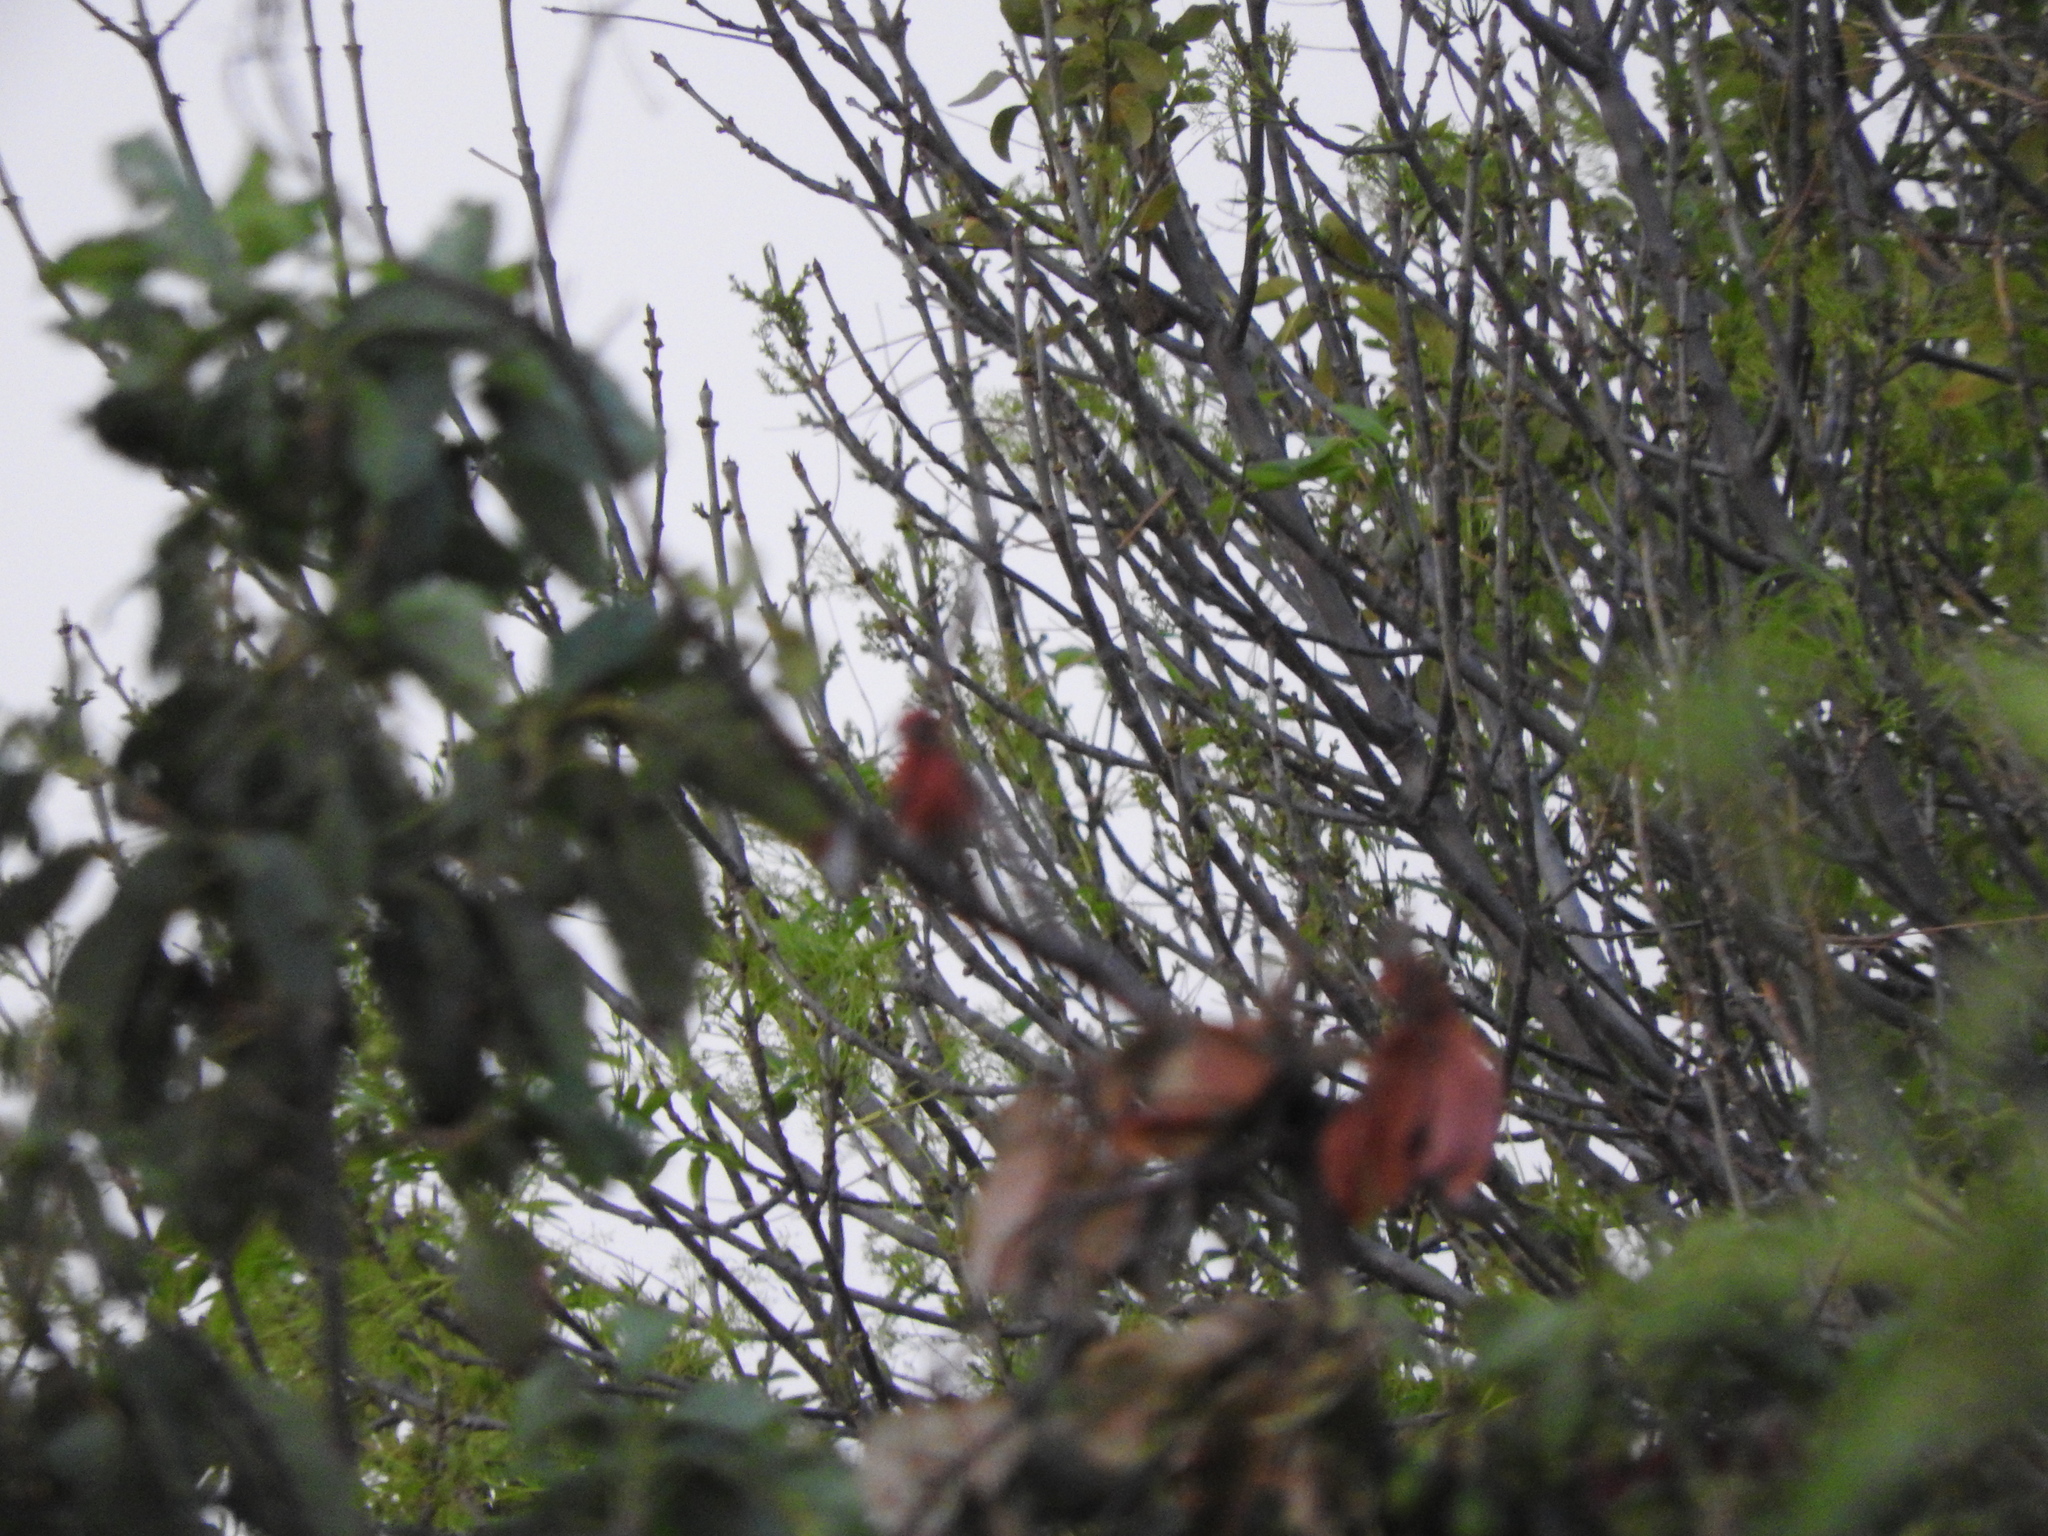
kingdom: Animalia
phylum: Chordata
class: Aves
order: Passeriformes
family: Fringillidae
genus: Haemorhous
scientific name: Haemorhous mexicanus
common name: House finch
